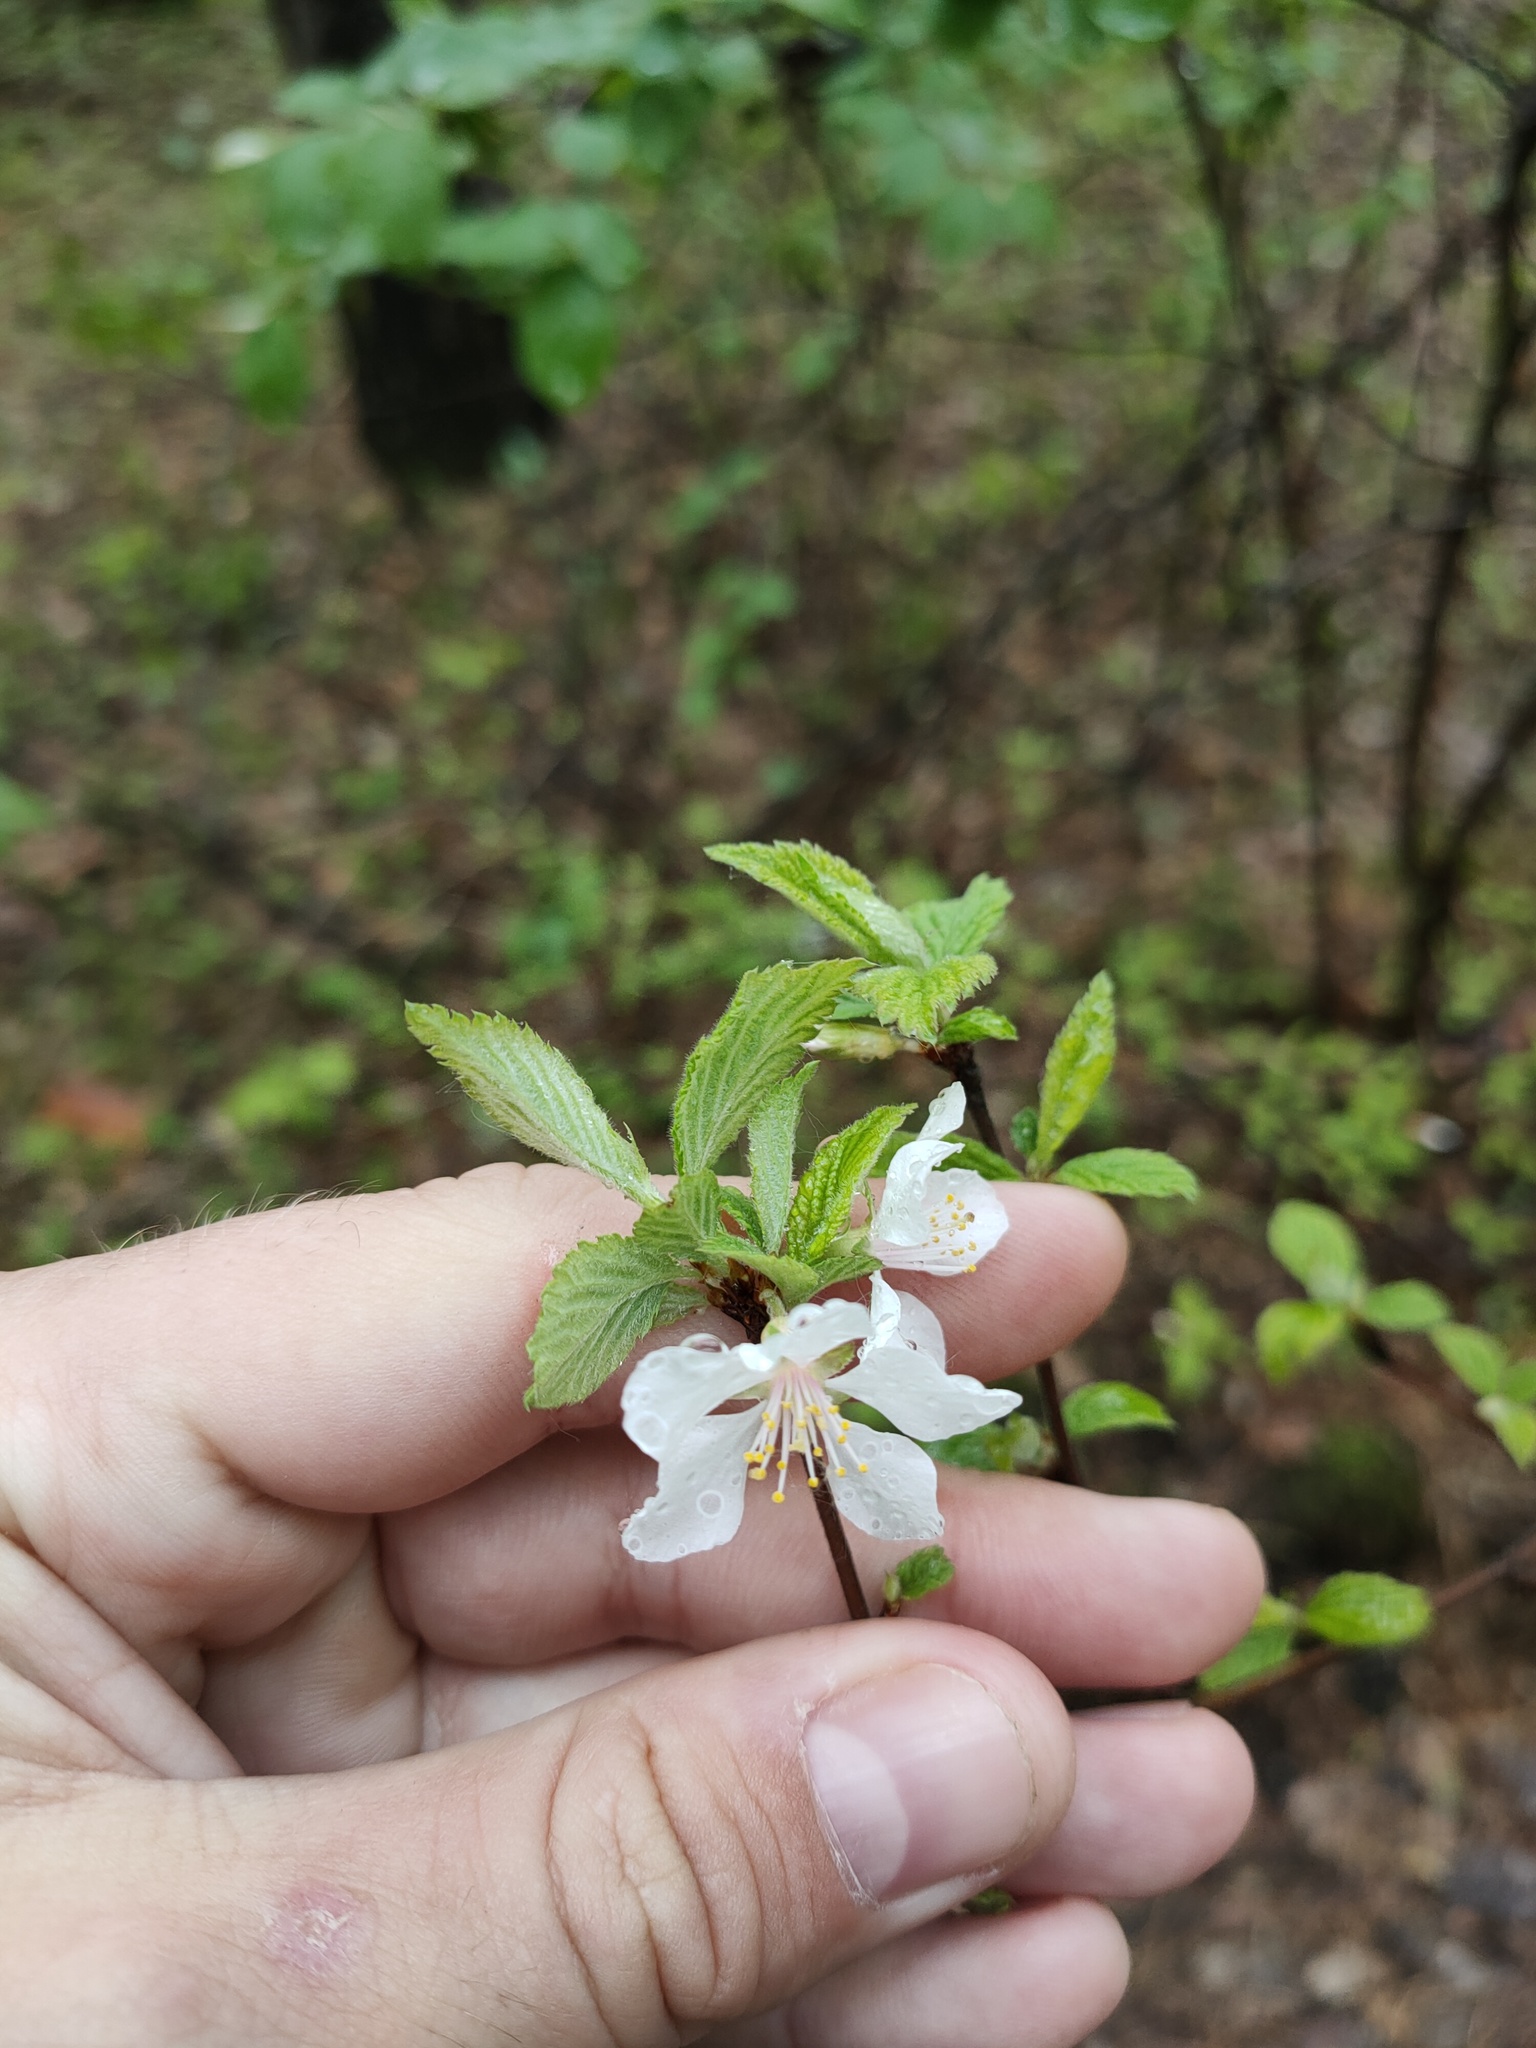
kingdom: Plantae
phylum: Tracheophyta
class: Magnoliopsida
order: Rosales
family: Rosaceae
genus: Prunus
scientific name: Prunus tomentosa
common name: Nanking cherry
